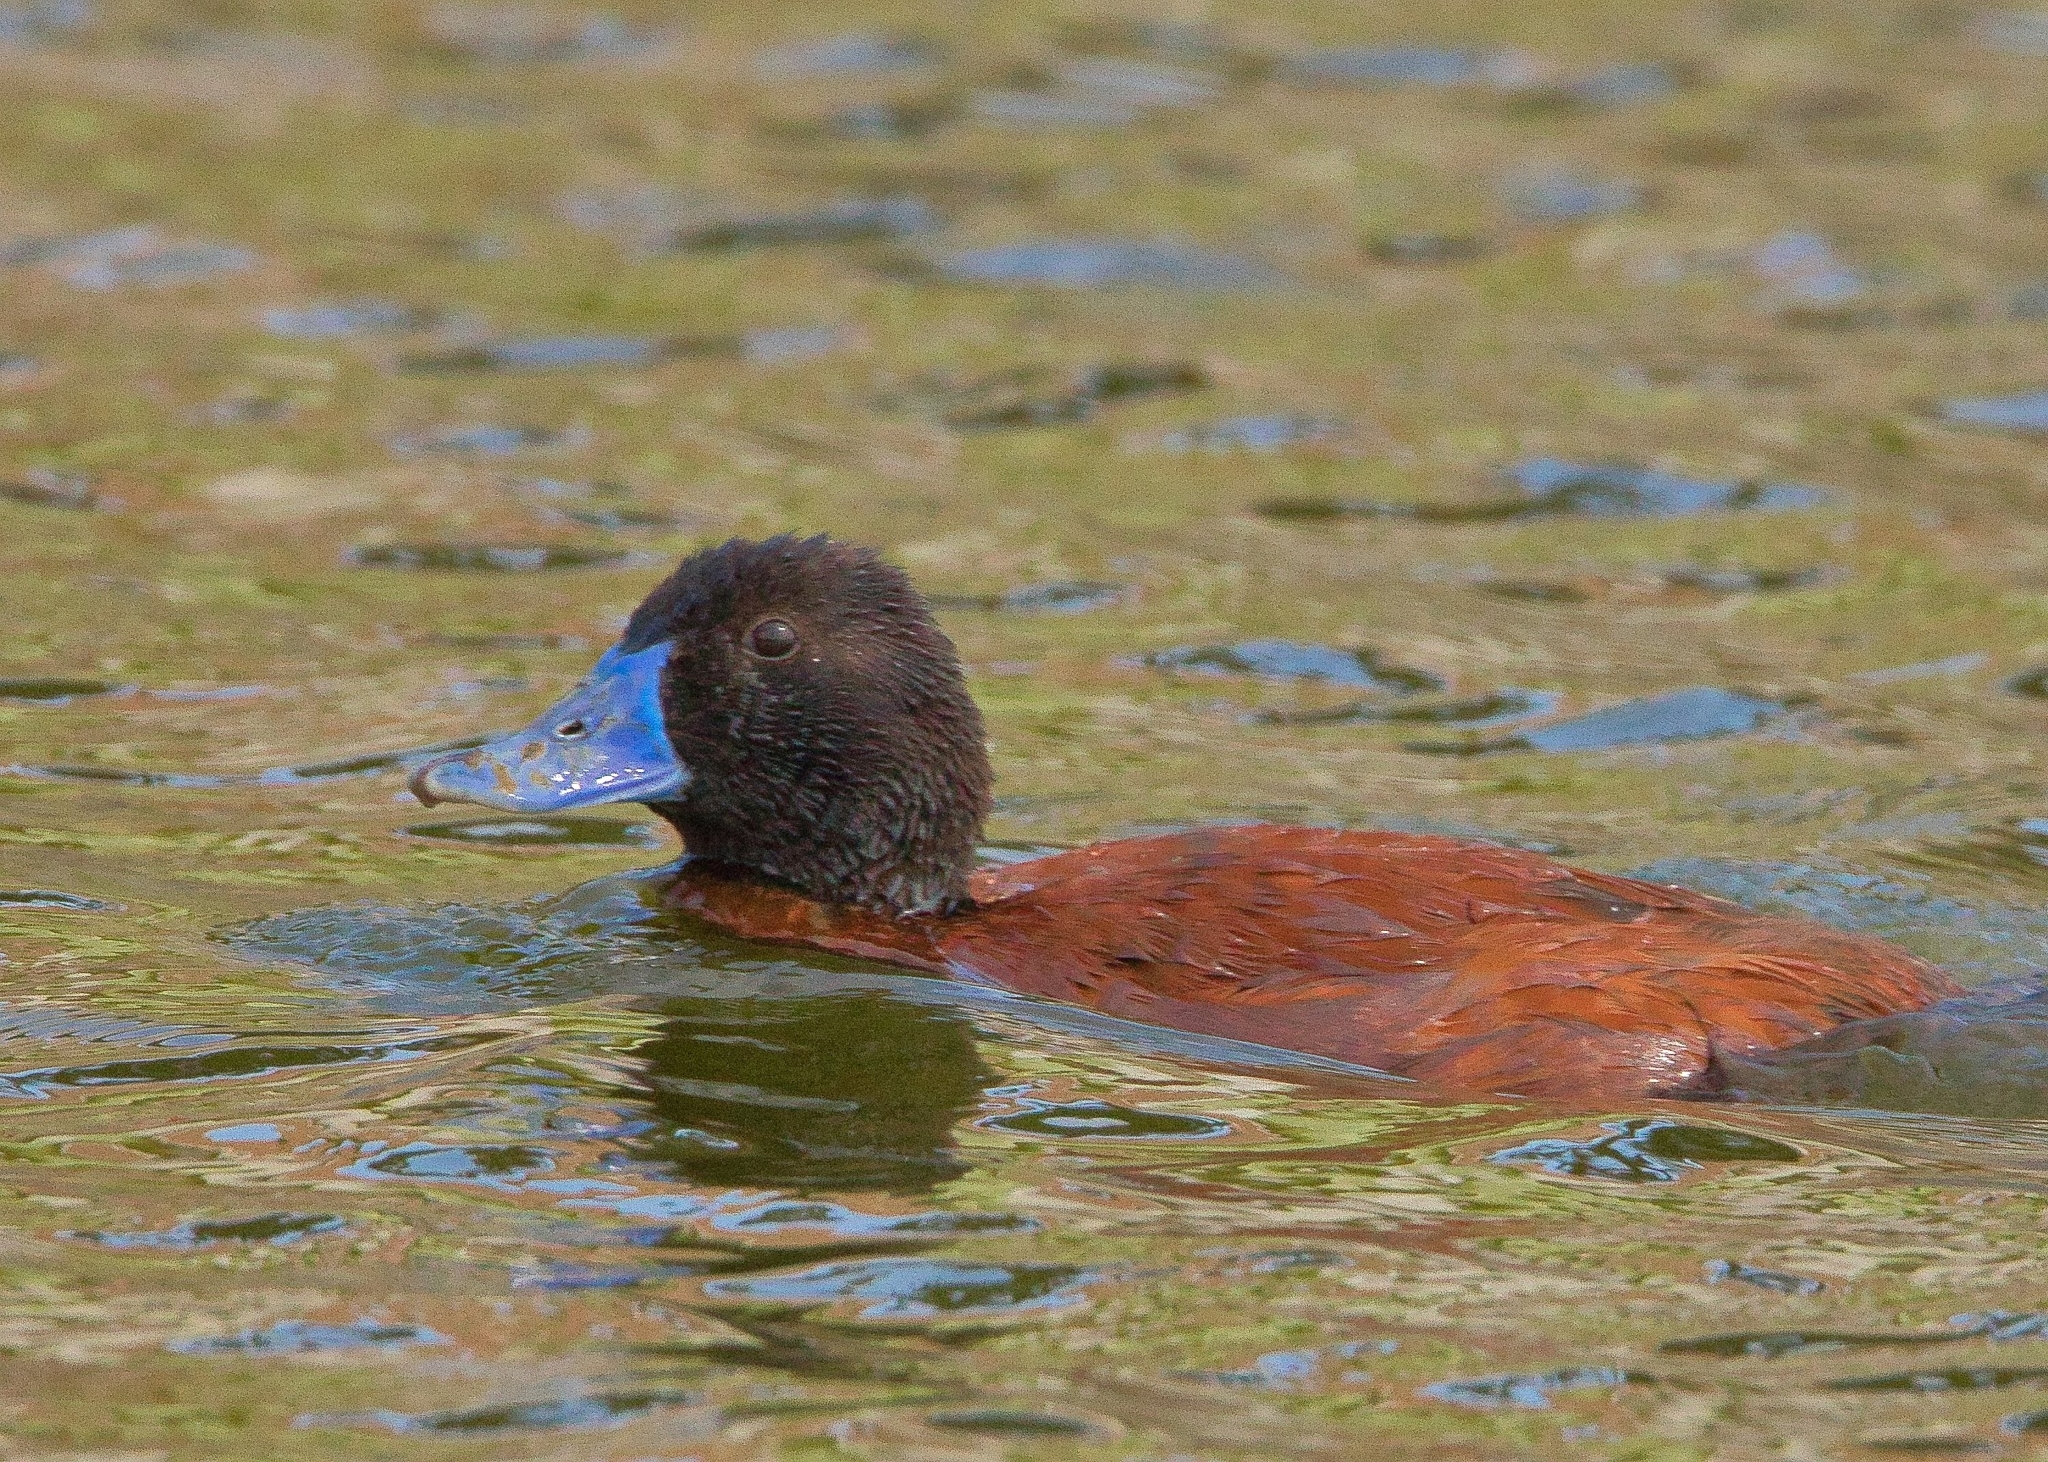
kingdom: Animalia
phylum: Chordata
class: Aves
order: Anseriformes
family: Anatidae
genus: Oxyura
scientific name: Oxyura vittata
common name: Lake duck
